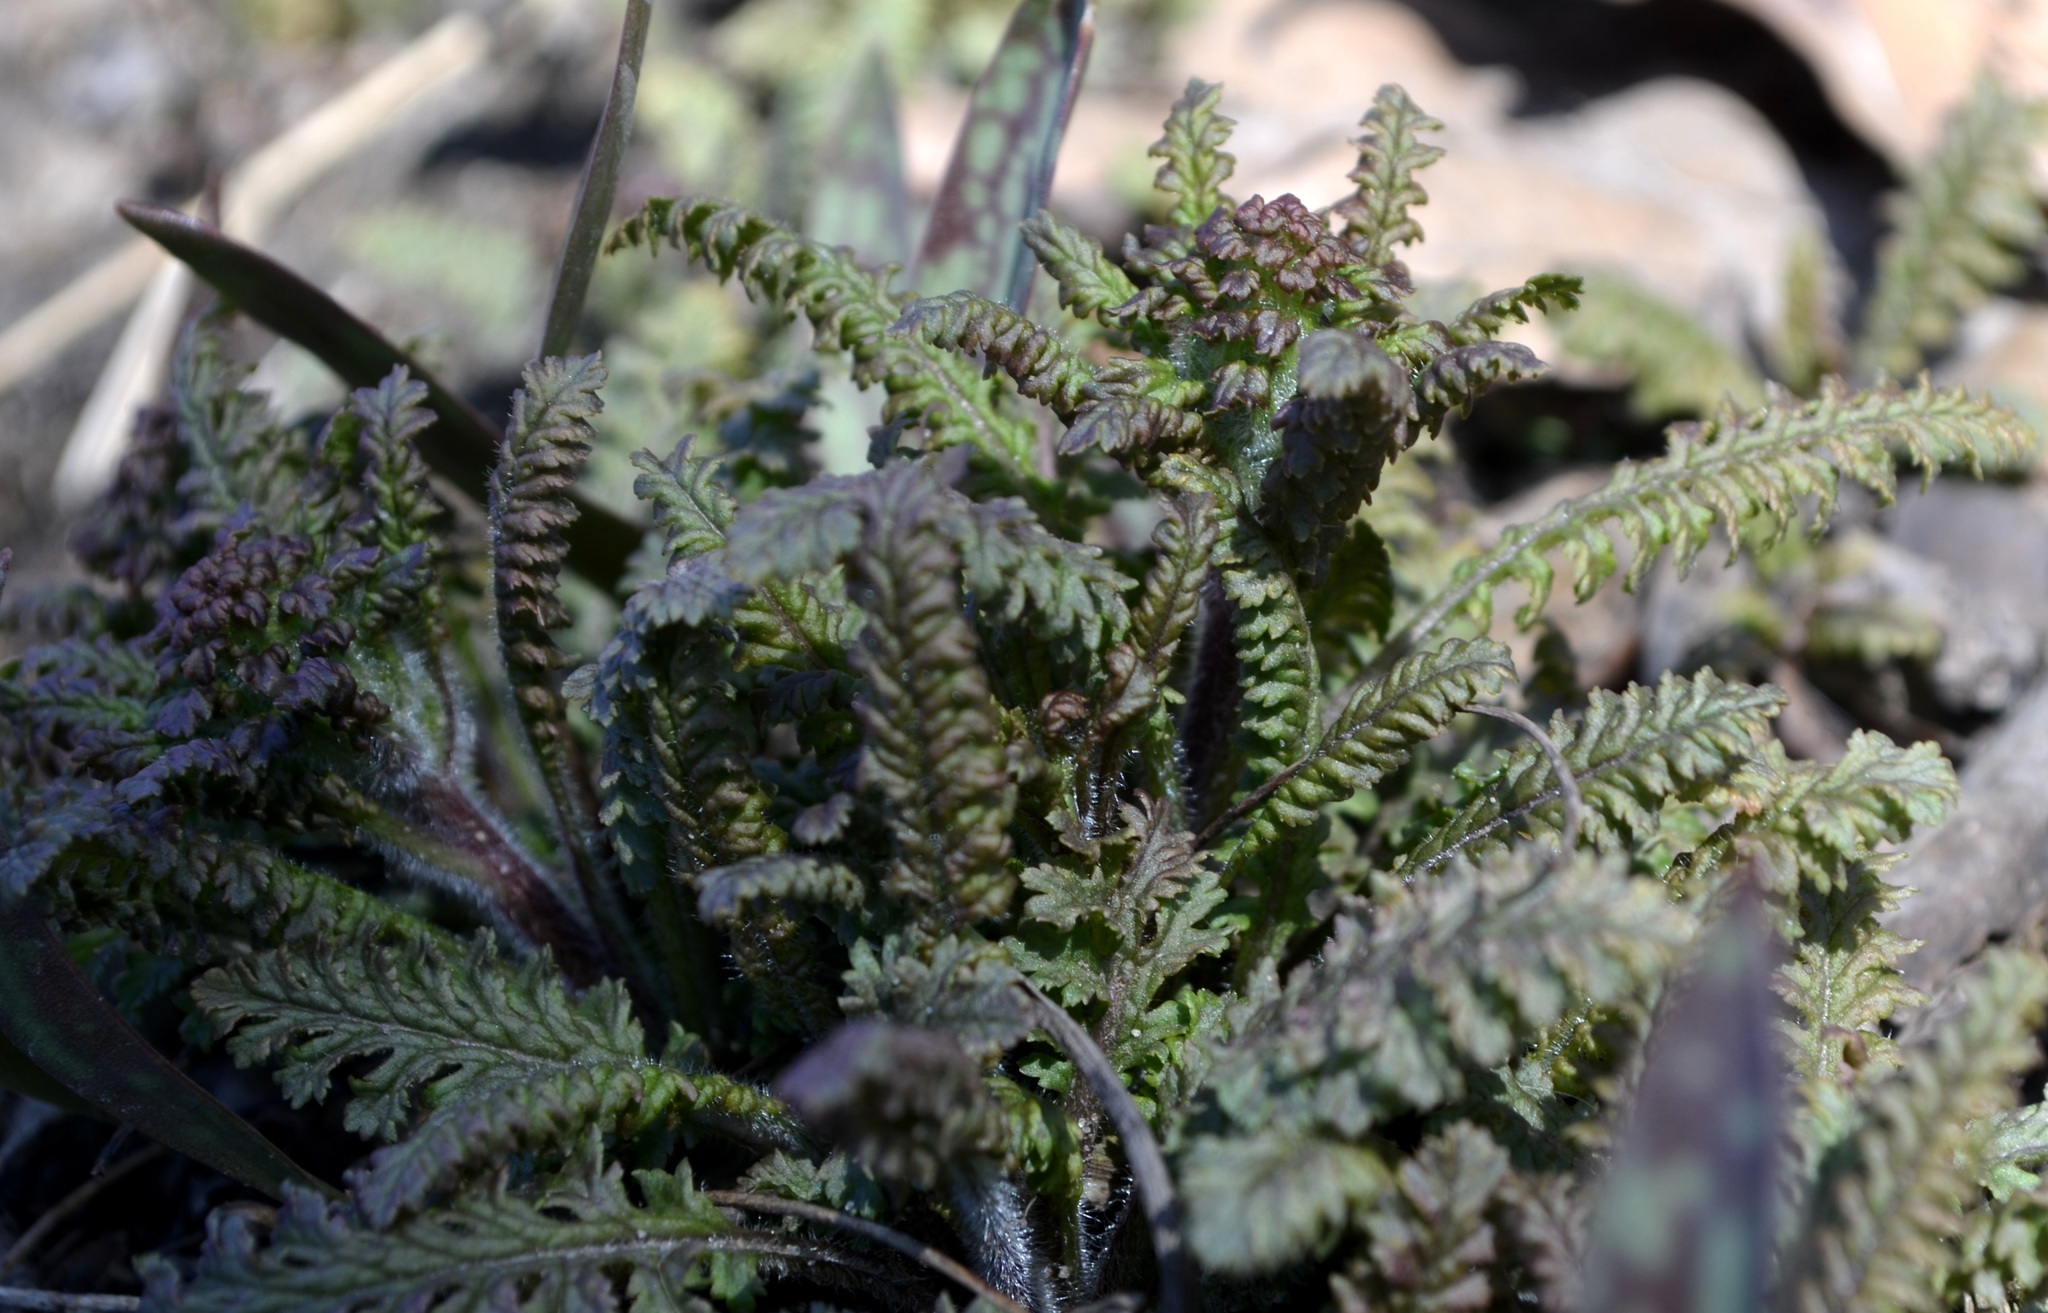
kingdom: Plantae
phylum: Tracheophyta
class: Magnoliopsida
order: Lamiales
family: Orobanchaceae
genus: Pedicularis
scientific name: Pedicularis canadensis
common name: Early lousewort
